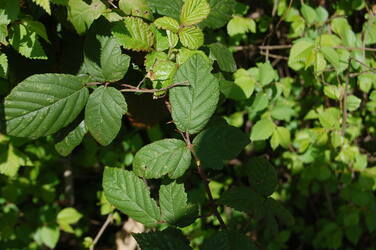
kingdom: Plantae
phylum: Tracheophyta
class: Magnoliopsida
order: Rosales
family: Rosaceae
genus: Rubus
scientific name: Rubus ulmifolius
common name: Elmleaf blackberry
